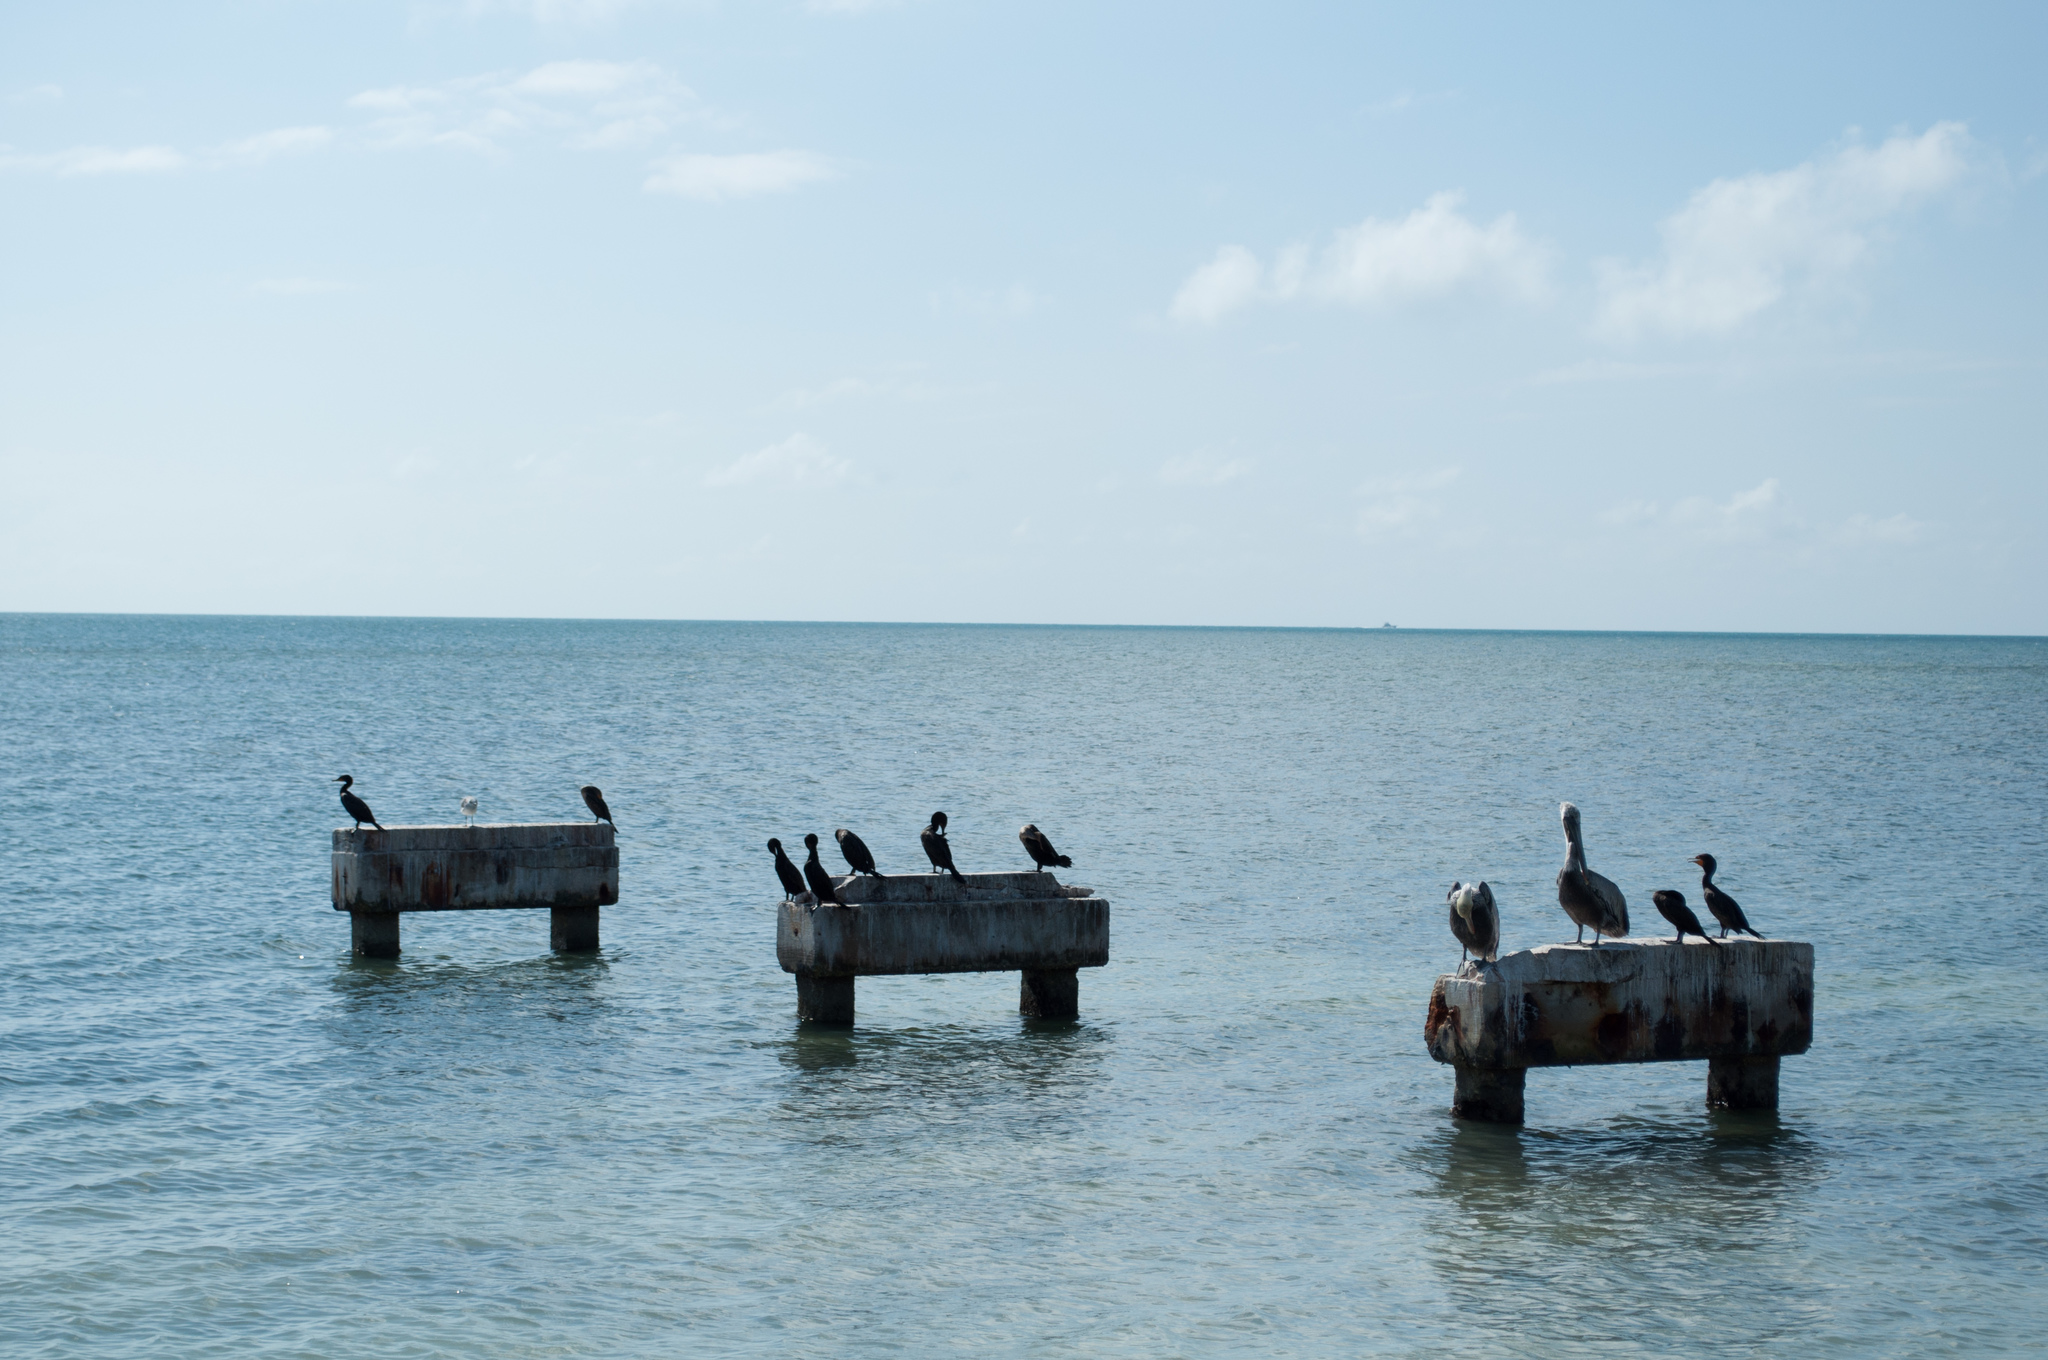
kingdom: Animalia
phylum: Chordata
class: Aves
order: Suliformes
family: Phalacrocoracidae
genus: Phalacrocorax
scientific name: Phalacrocorax auritus
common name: Double-crested cormorant
